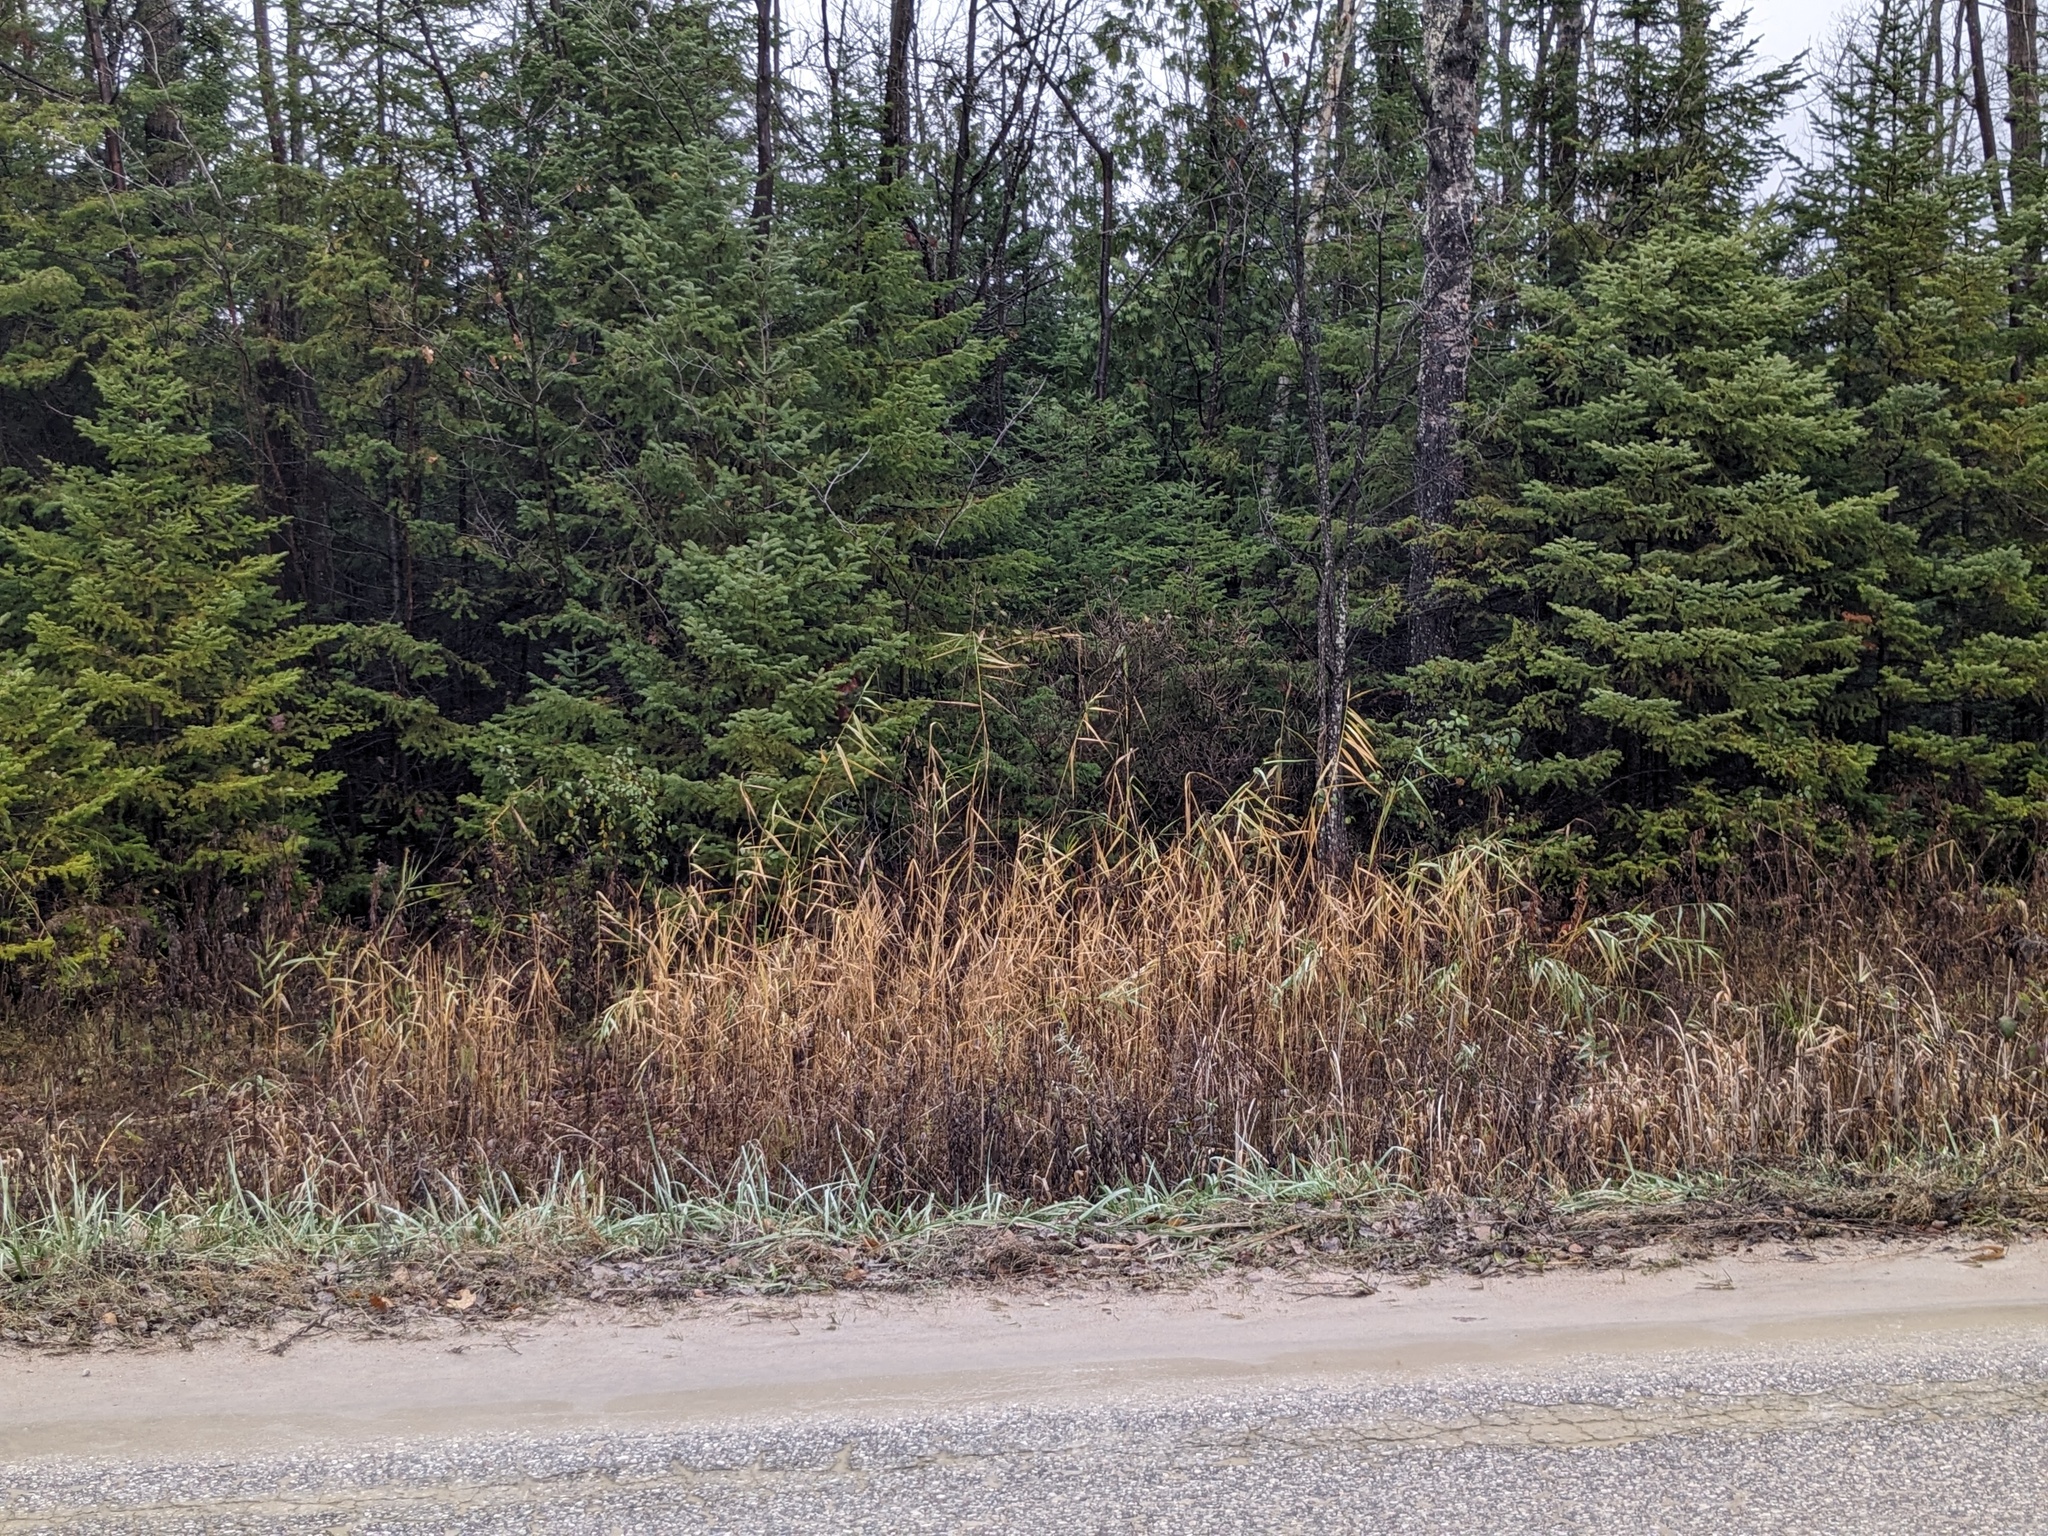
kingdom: Plantae
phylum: Tracheophyta
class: Liliopsida
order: Poales
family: Poaceae
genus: Phragmites
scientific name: Phragmites australis
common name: Common reed
